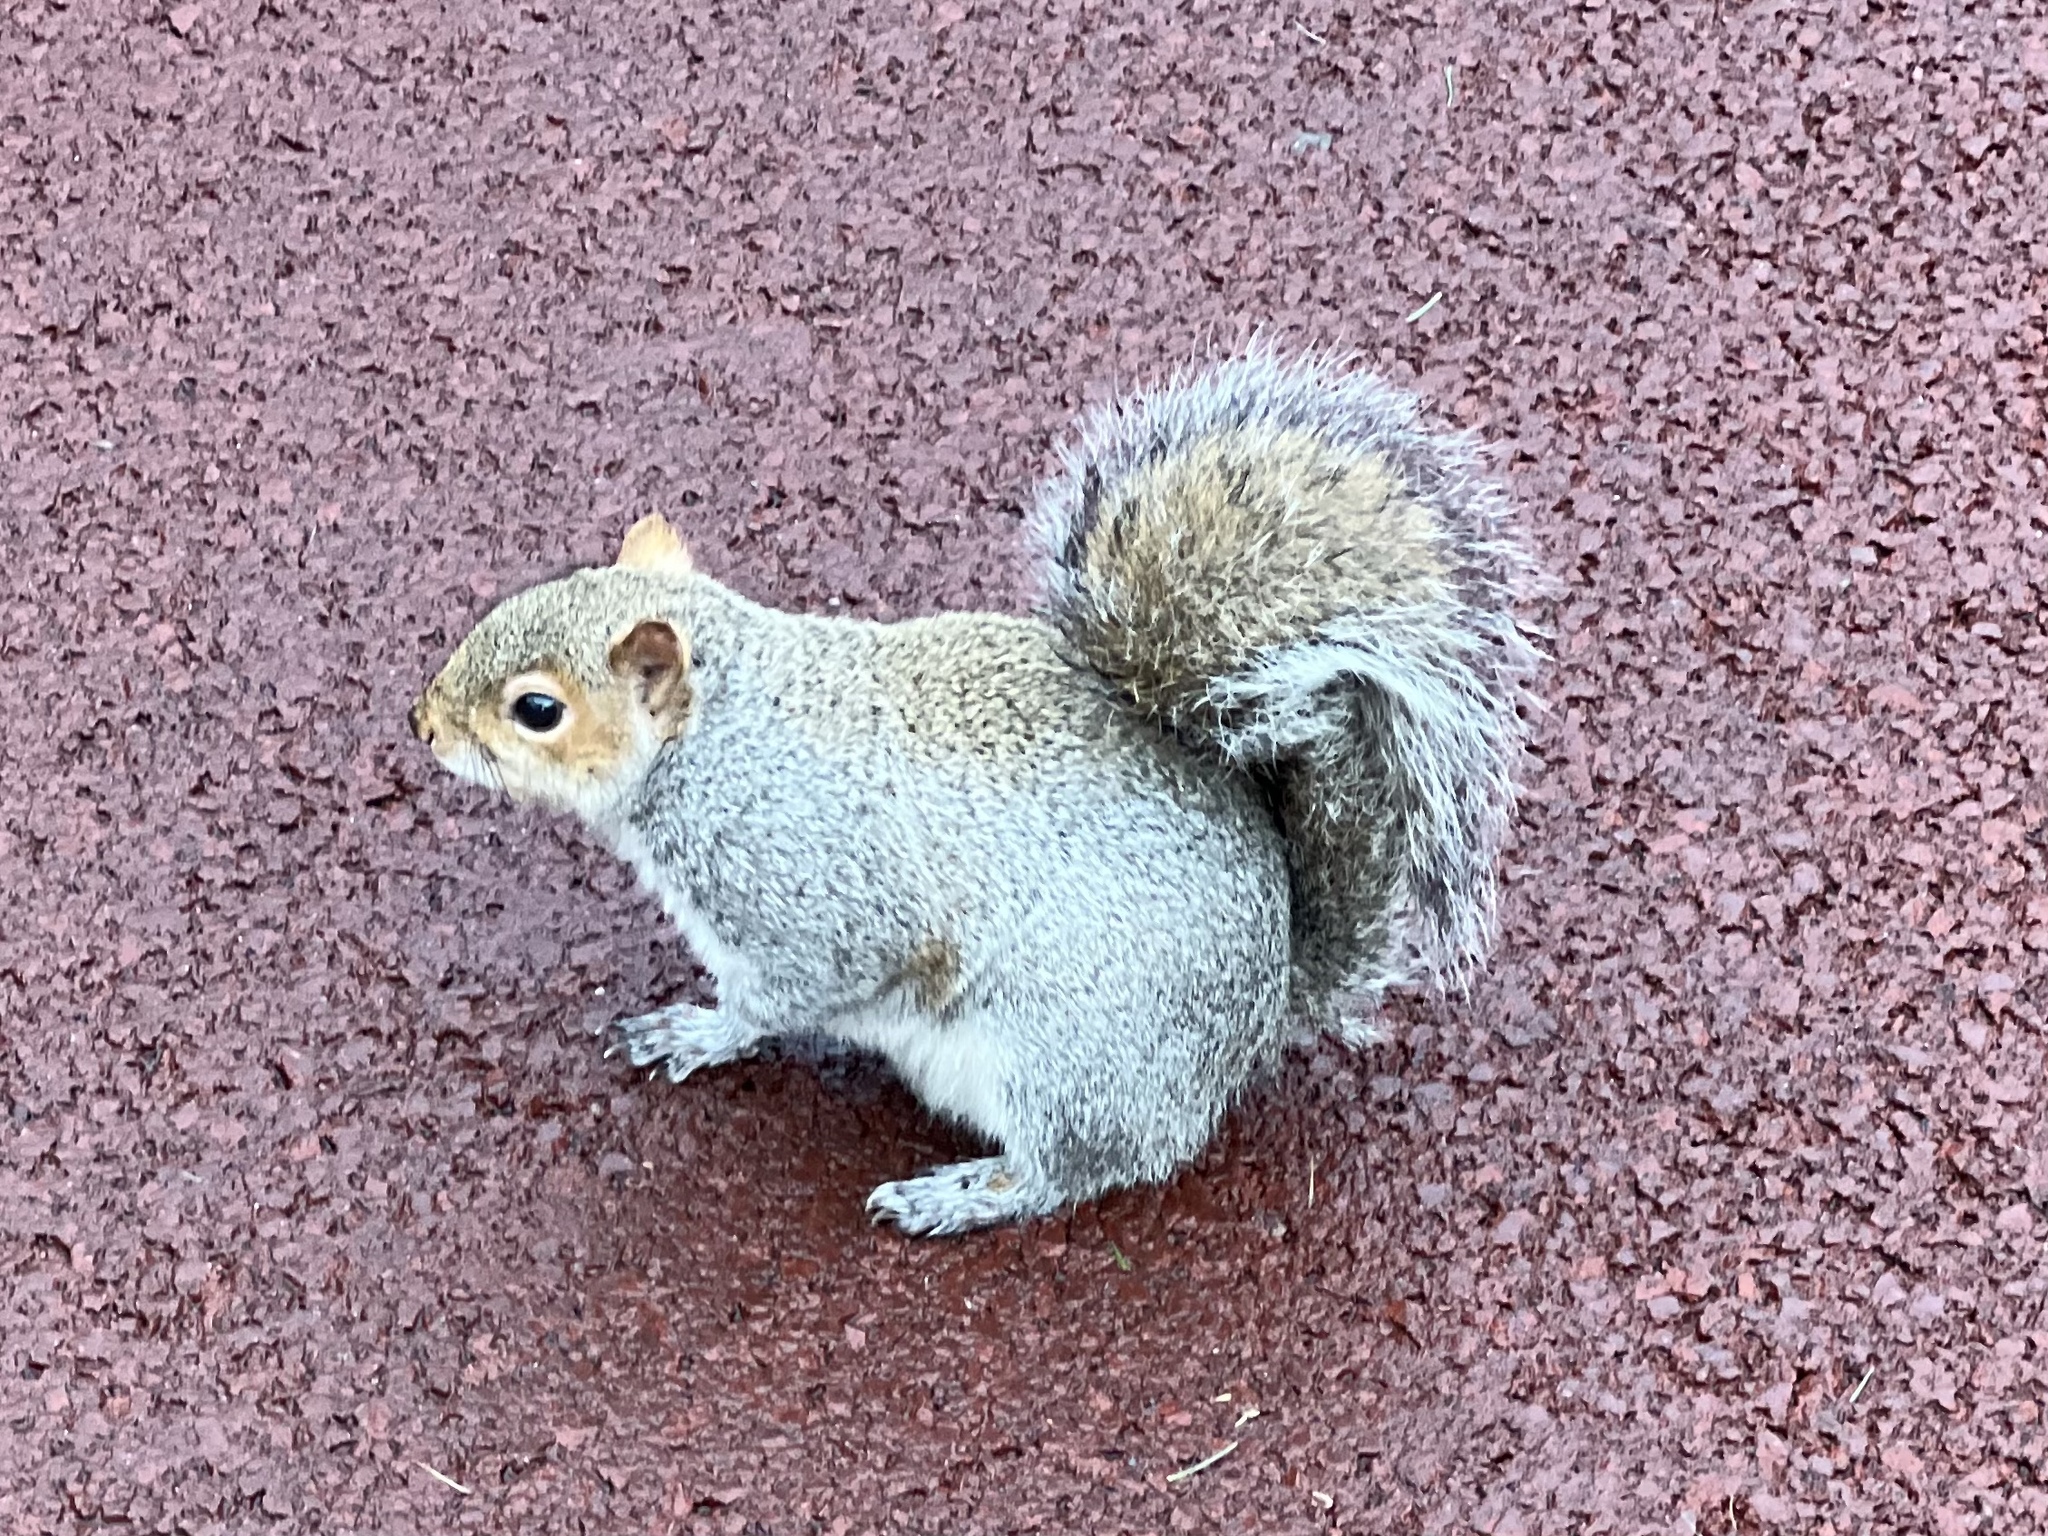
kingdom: Animalia
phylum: Chordata
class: Mammalia
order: Rodentia
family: Sciuridae
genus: Sciurus
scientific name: Sciurus carolinensis
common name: Eastern gray squirrel
